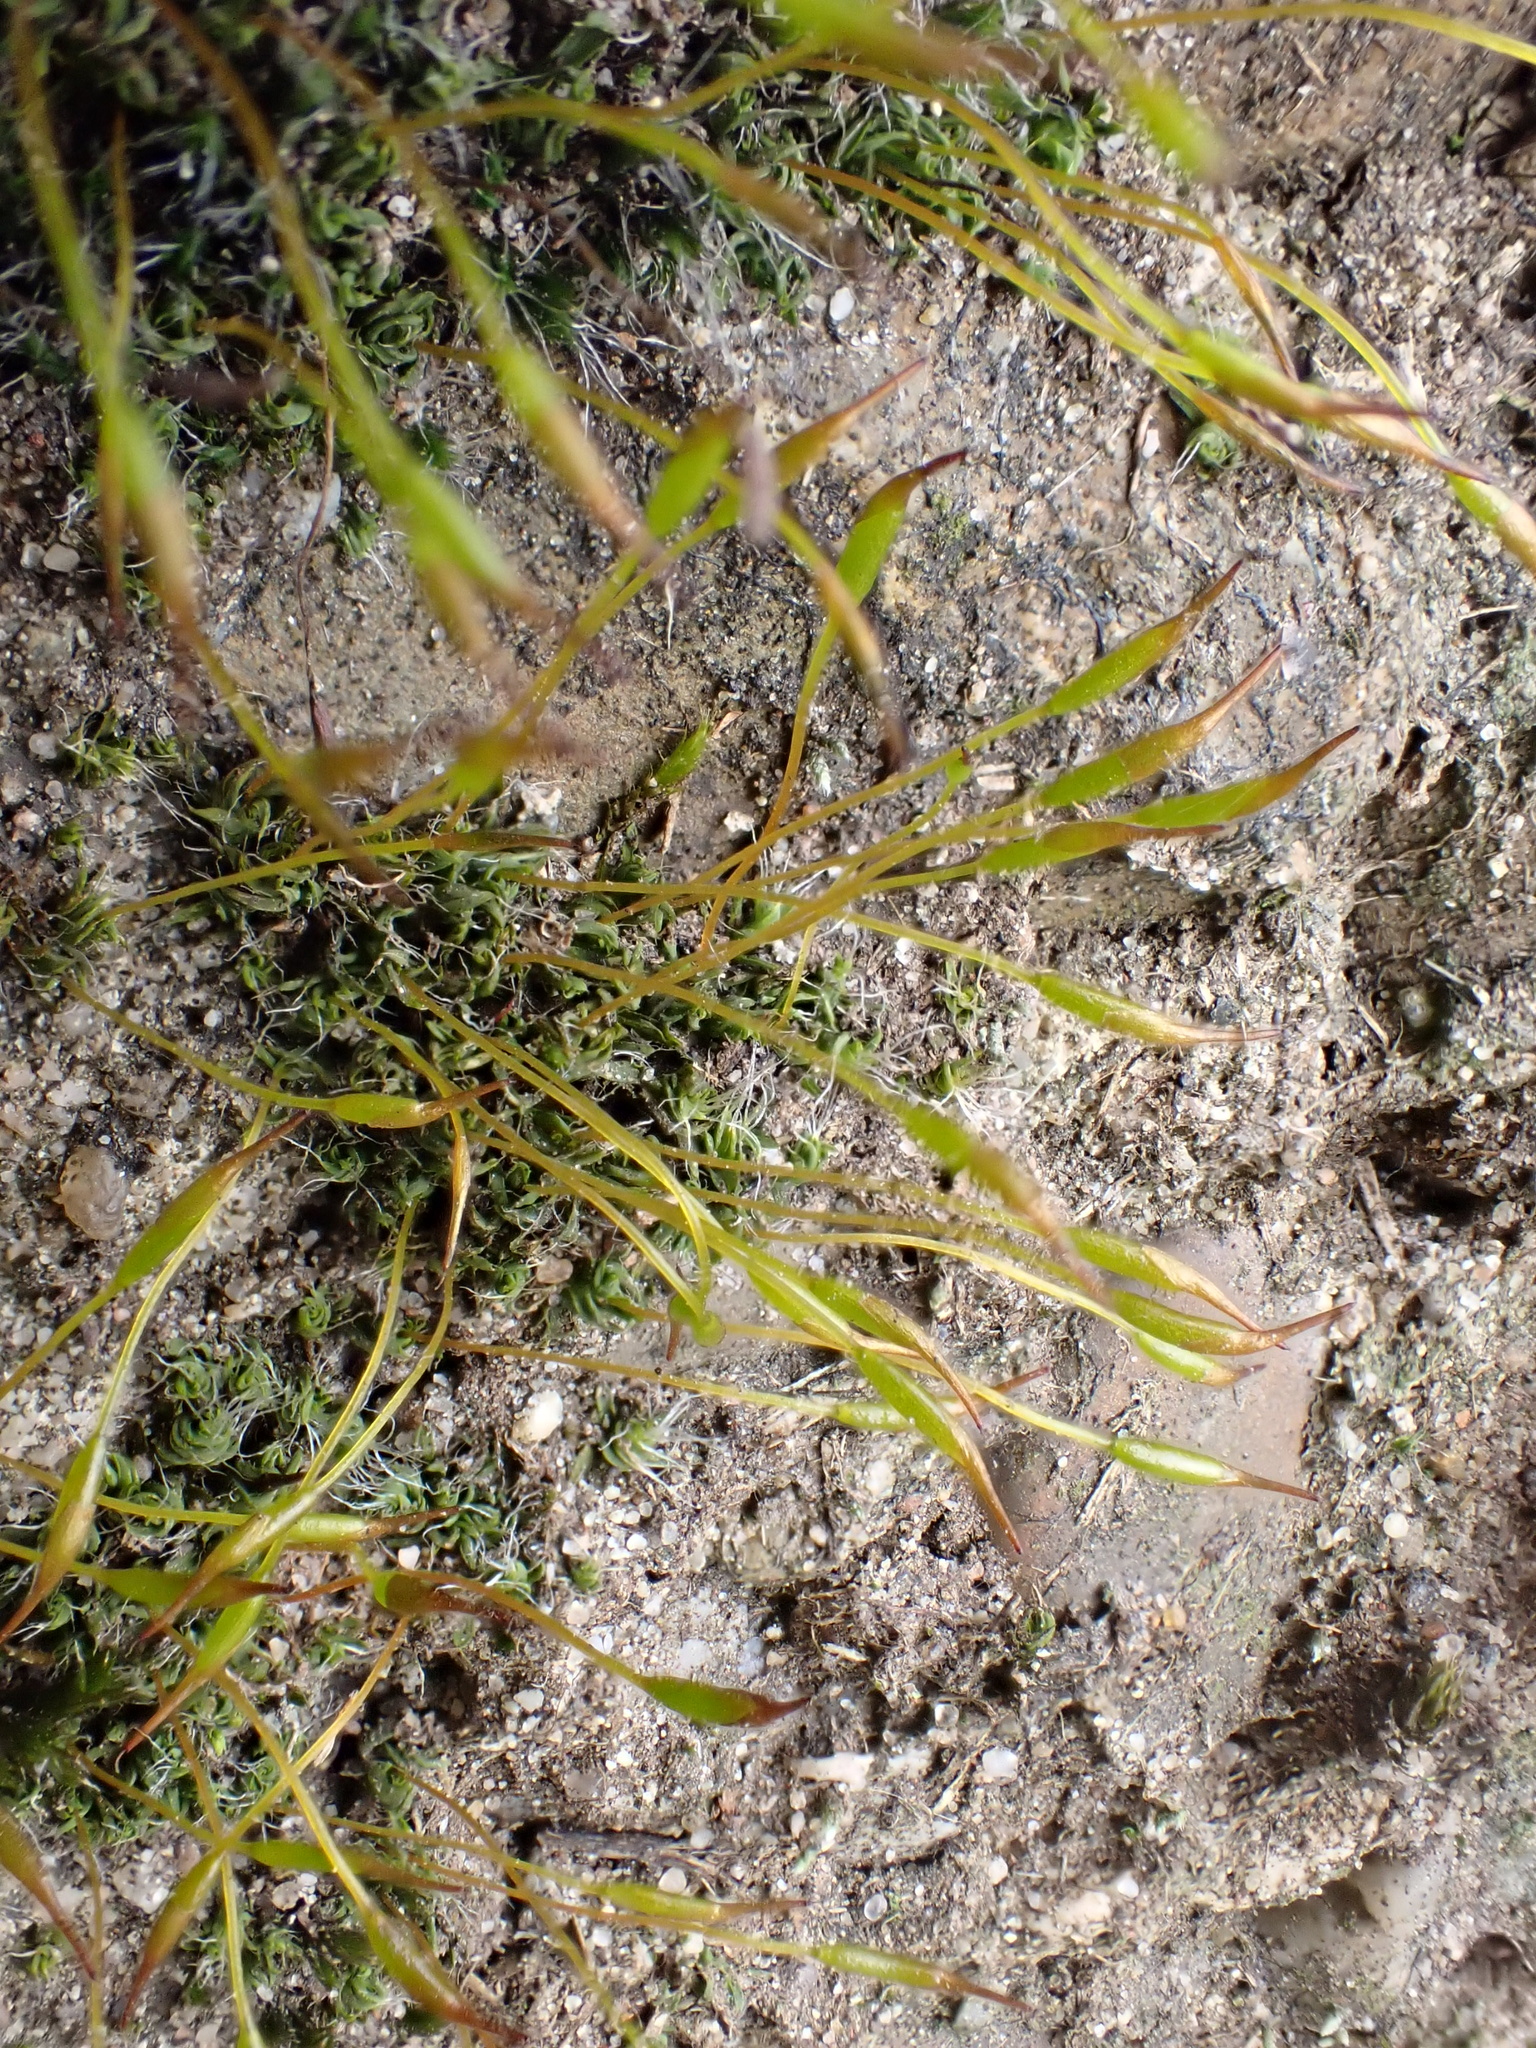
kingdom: Plantae
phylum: Bryophyta
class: Bryopsida
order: Pottiales
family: Pottiaceae
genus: Tortula
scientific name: Tortula muralis
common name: Wall screw-moss
